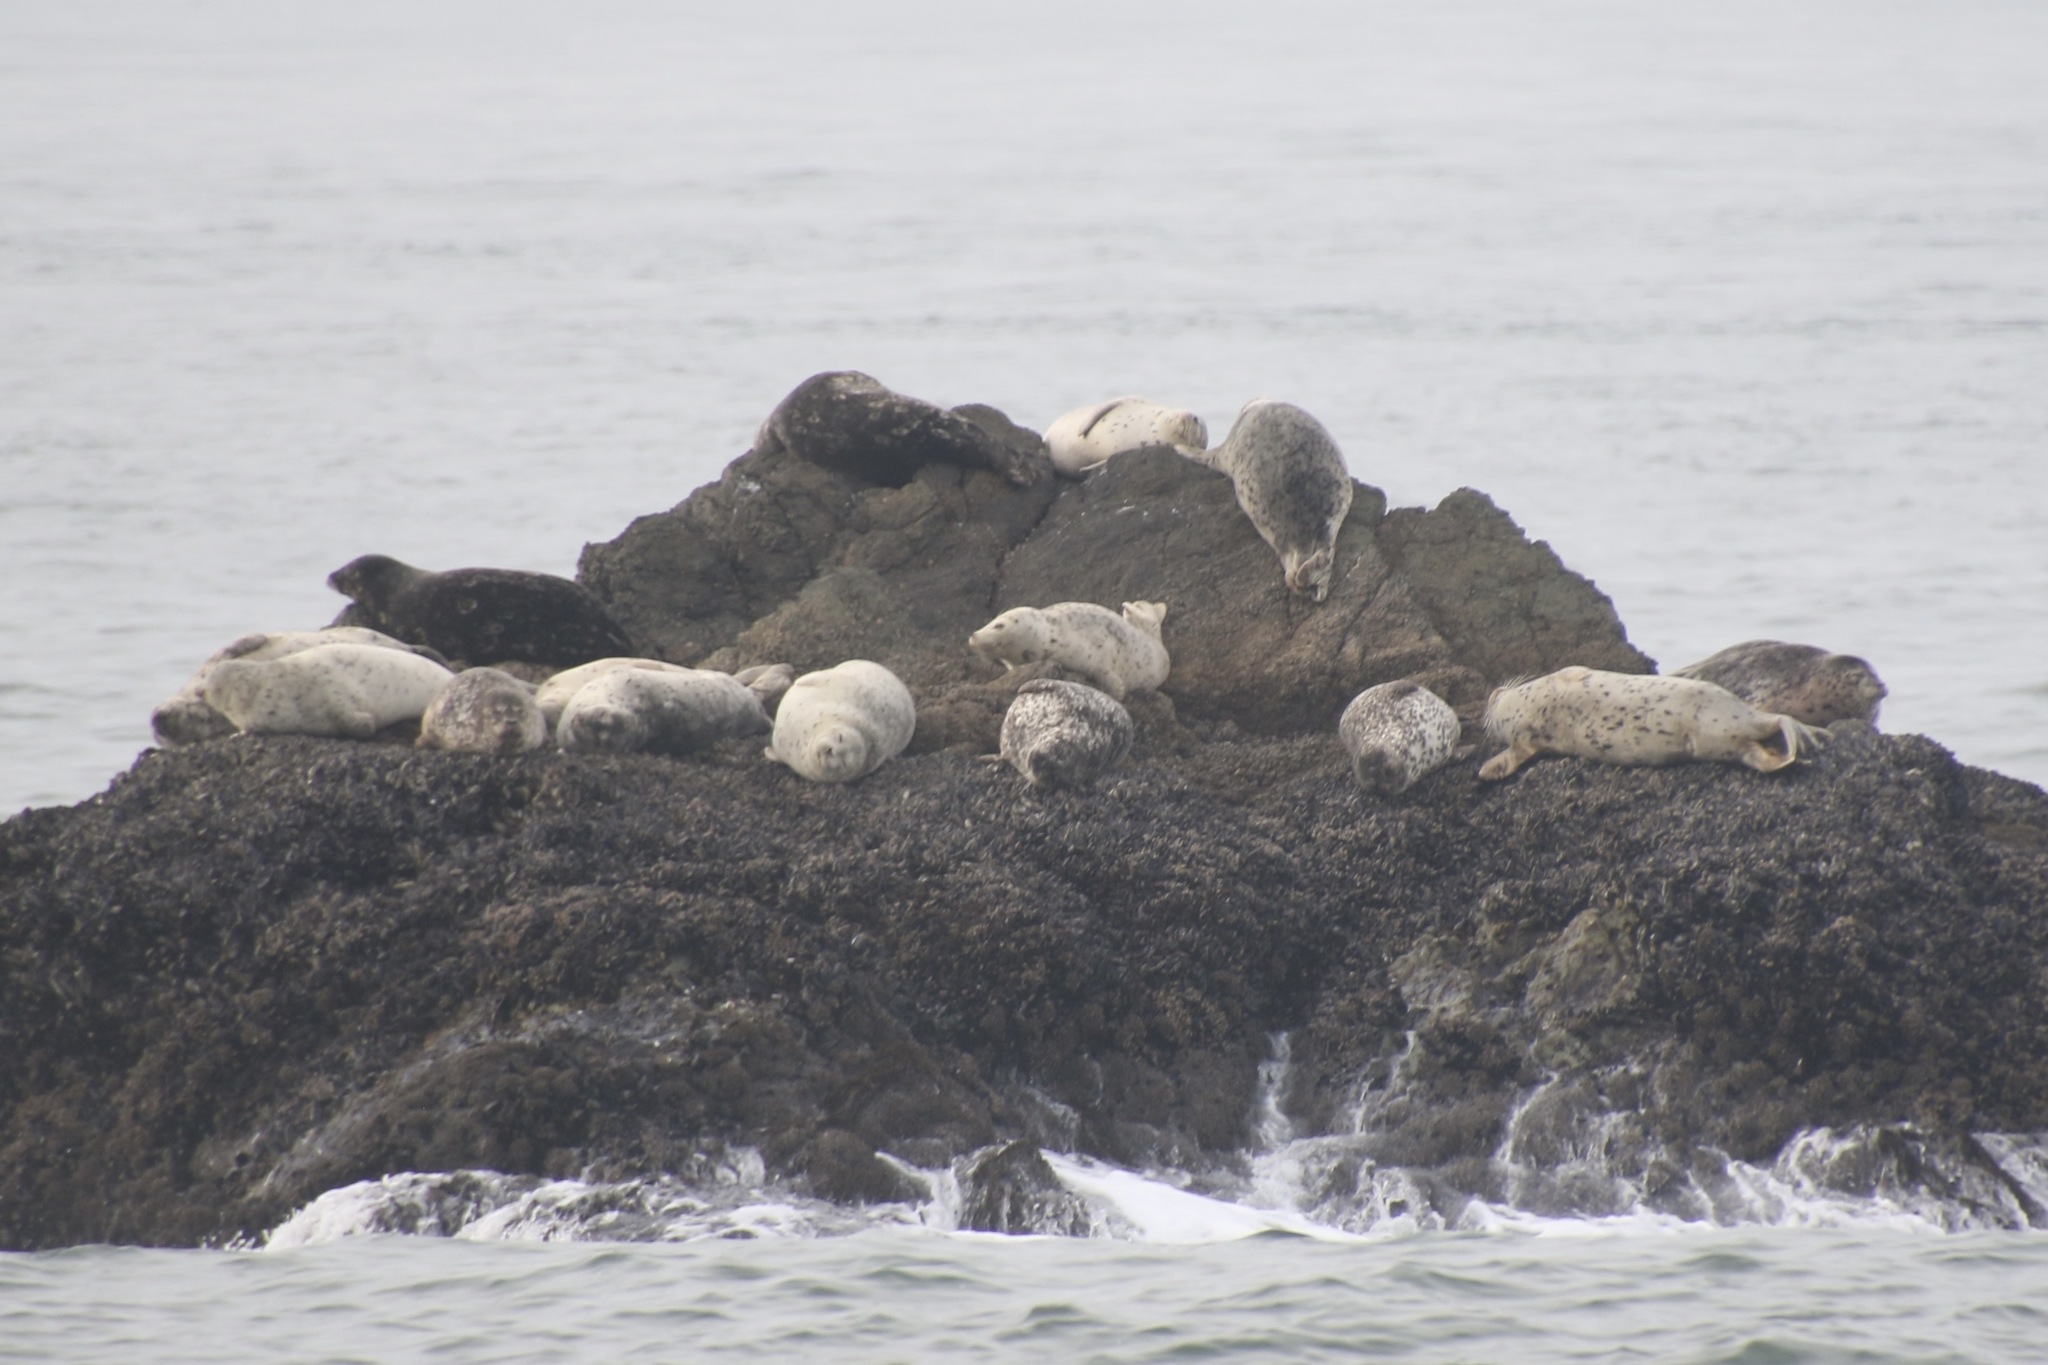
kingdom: Animalia
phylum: Chordata
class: Mammalia
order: Carnivora
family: Phocidae
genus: Phoca
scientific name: Phoca vitulina
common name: Harbor seal
